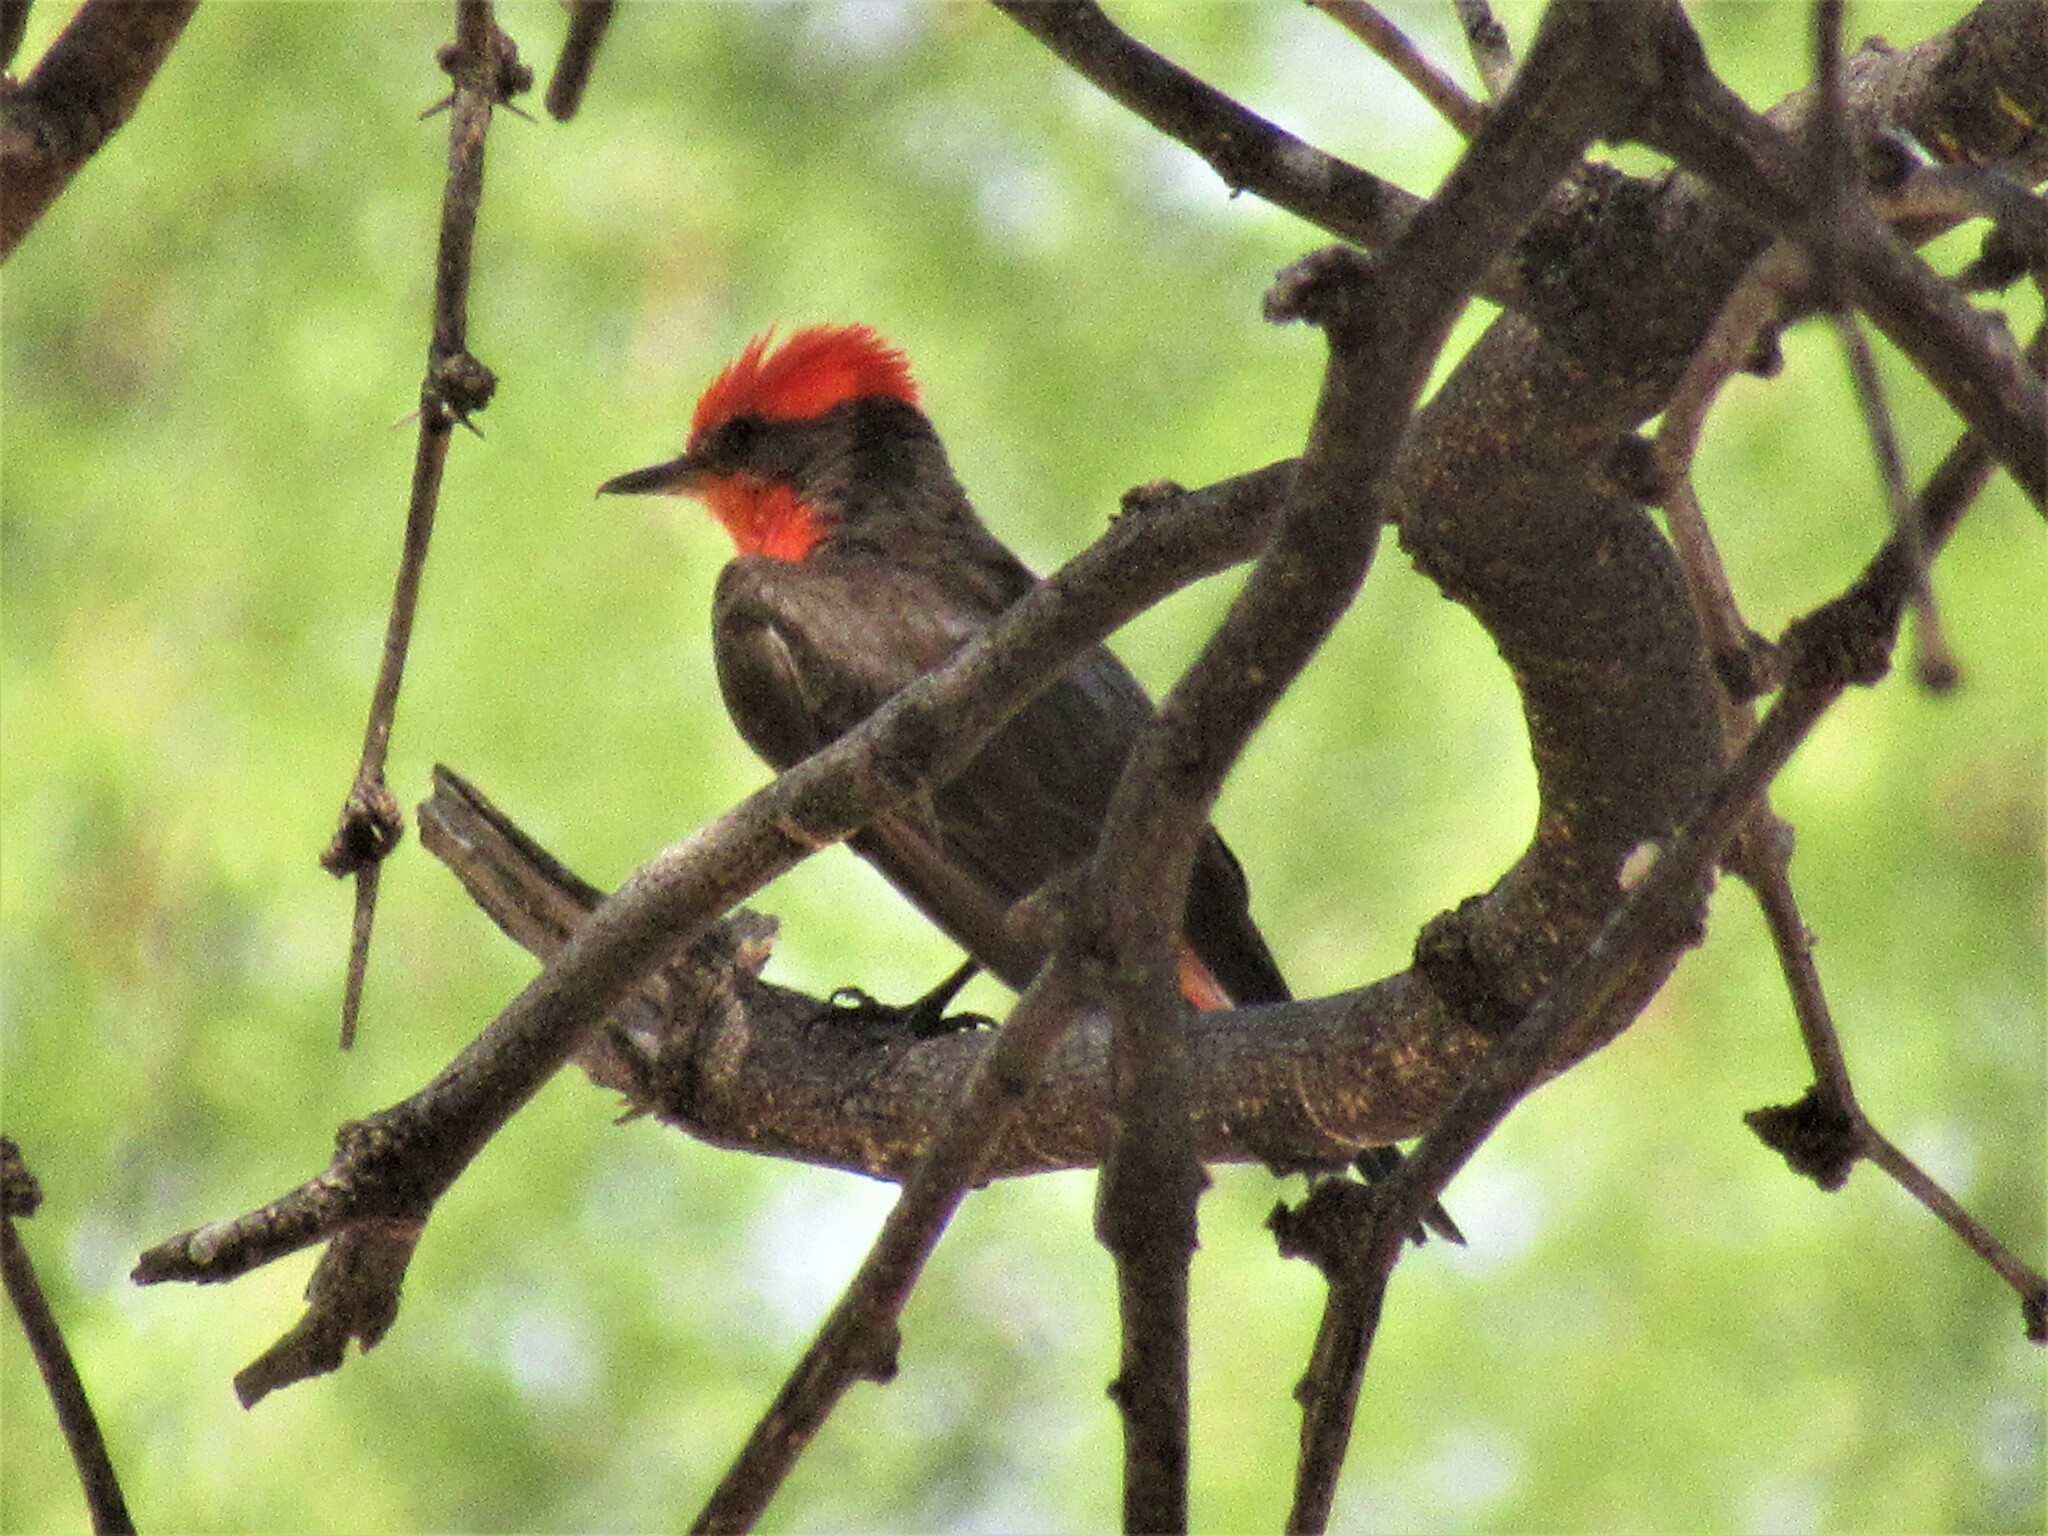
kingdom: Animalia
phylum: Chordata
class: Aves
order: Passeriformes
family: Tyrannidae
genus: Pyrocephalus
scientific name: Pyrocephalus rubinus
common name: Vermilion flycatcher
